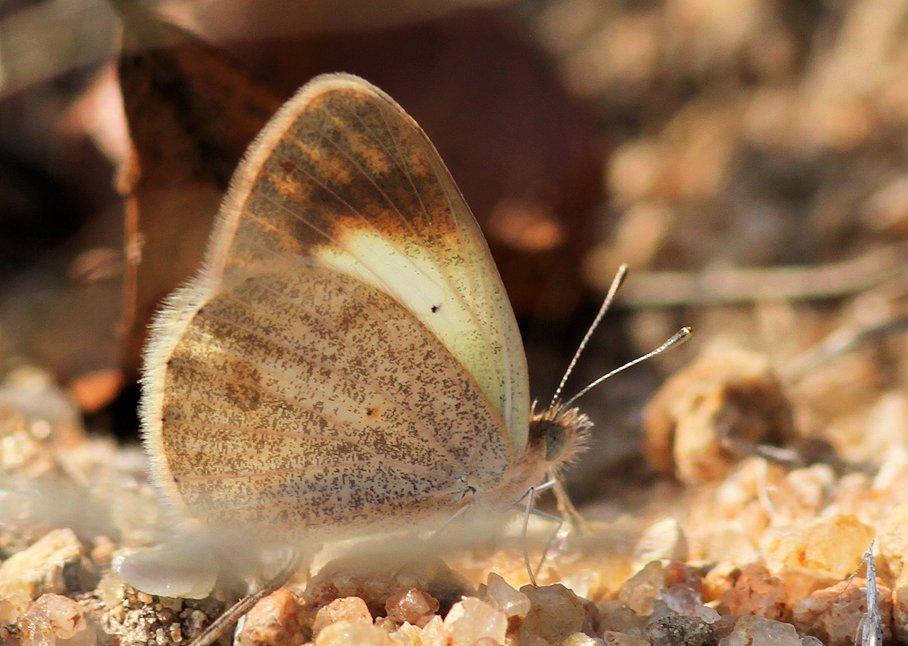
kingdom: Animalia
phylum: Arthropoda
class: Insecta
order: Lepidoptera
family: Pieridae
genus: Colotis
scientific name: Colotis evagore
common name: Desert orange-tip
